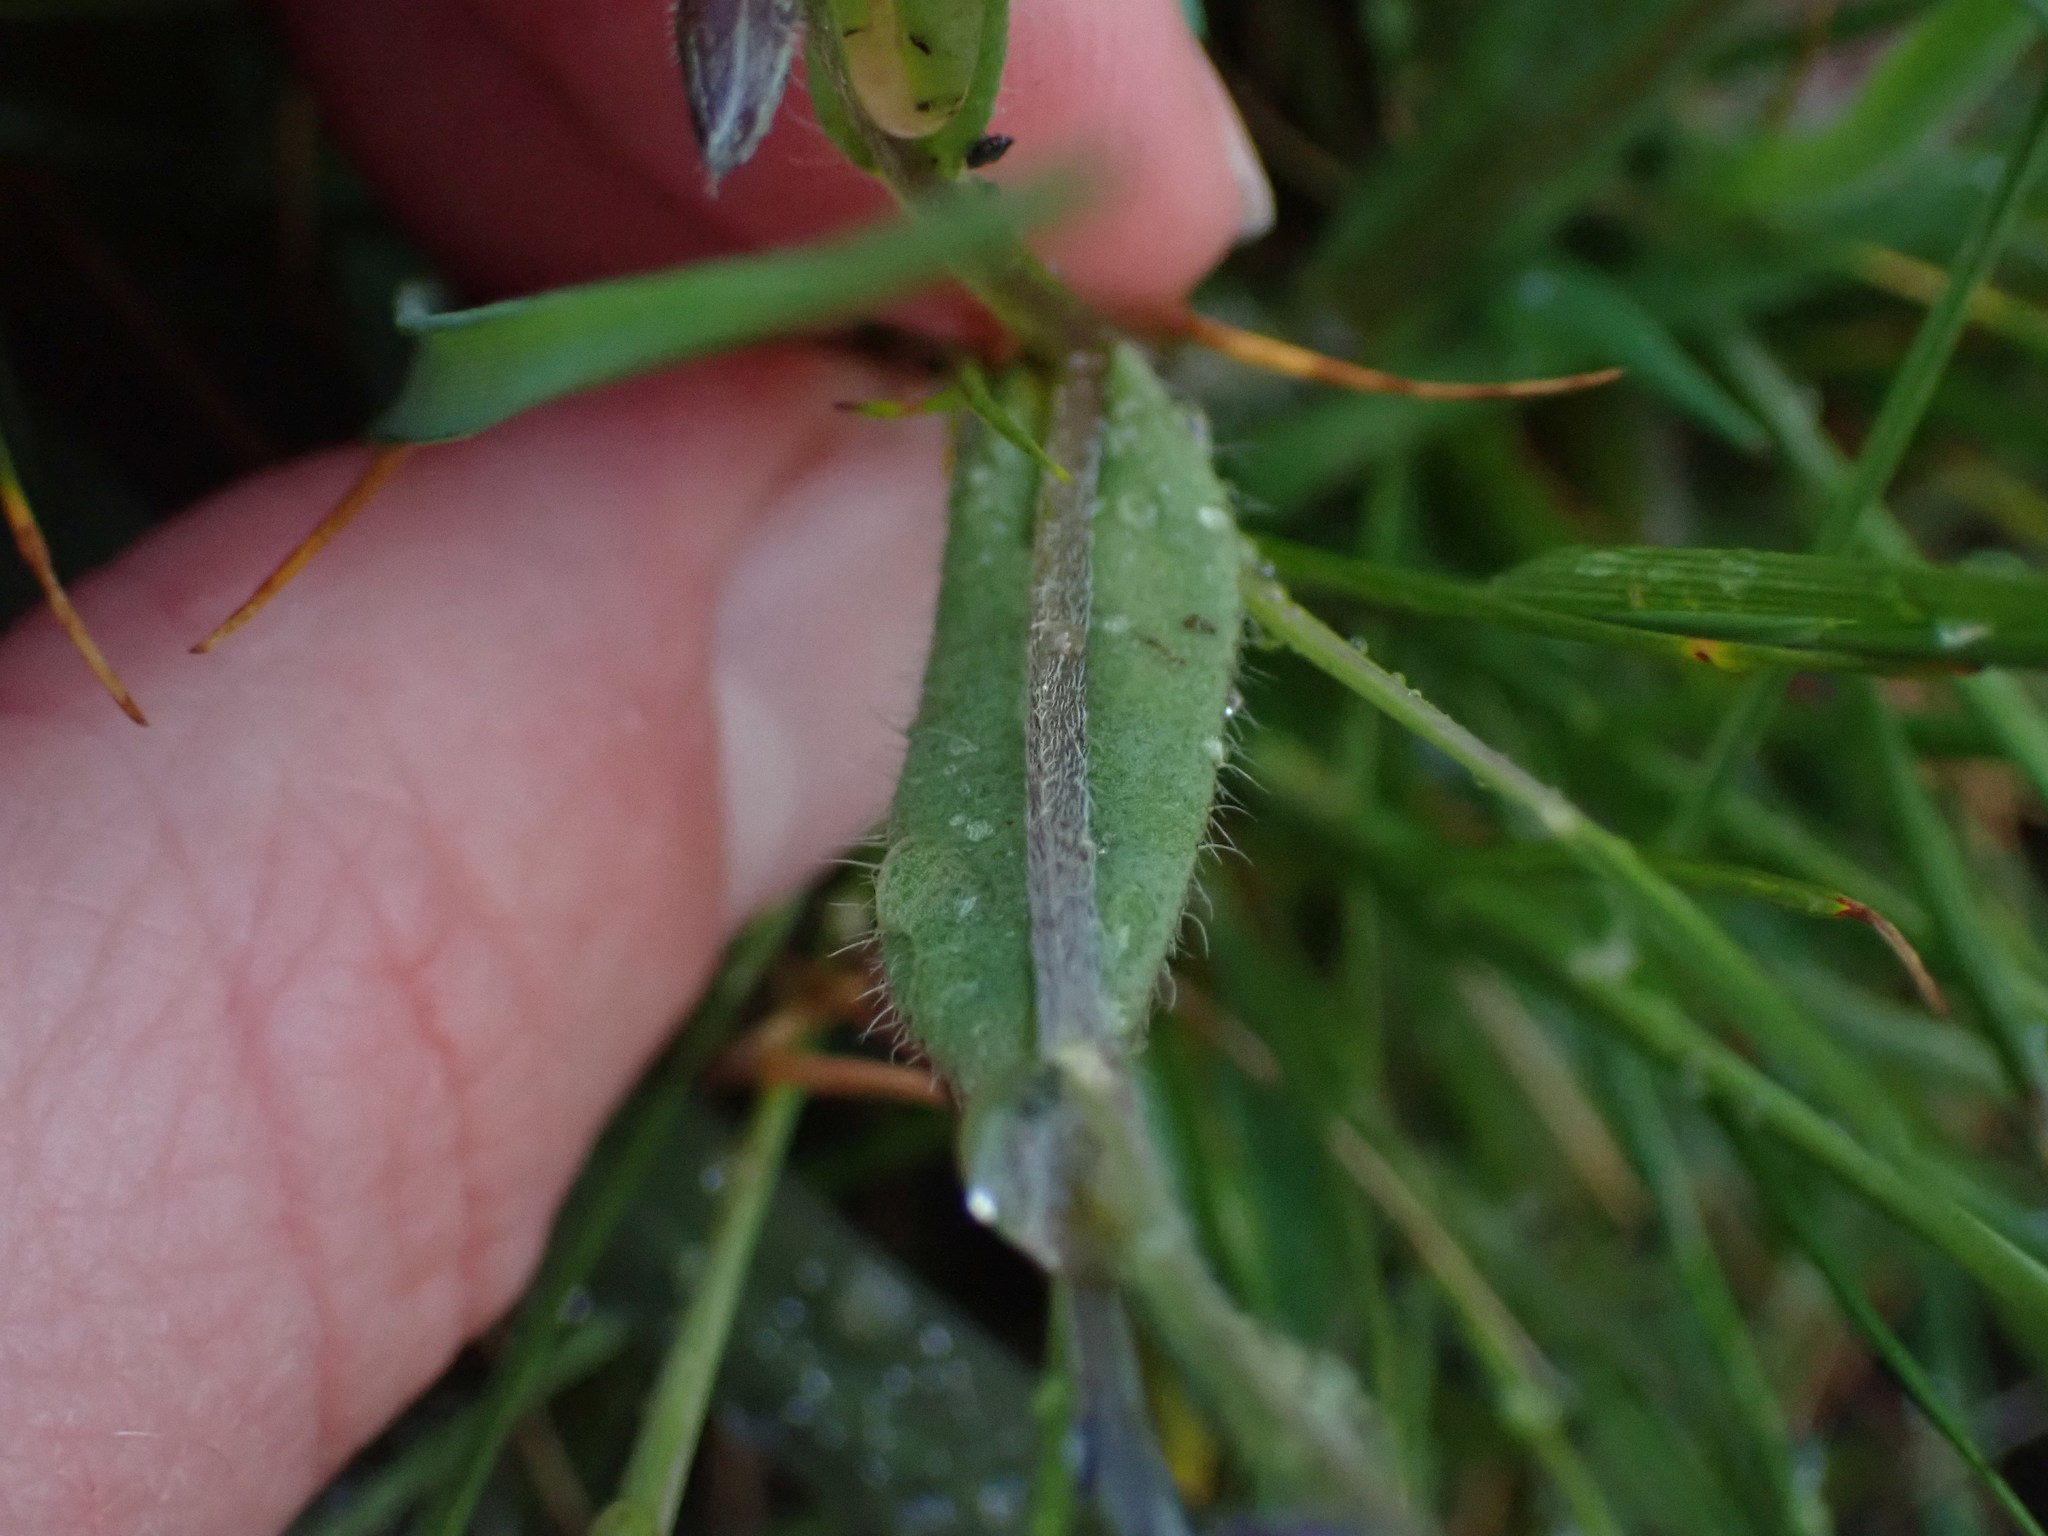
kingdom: Plantae
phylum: Tracheophyta
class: Magnoliopsida
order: Boraginales
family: Boraginaceae
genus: Myosotis
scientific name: Myosotis discolor
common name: Changing forget-me-not
